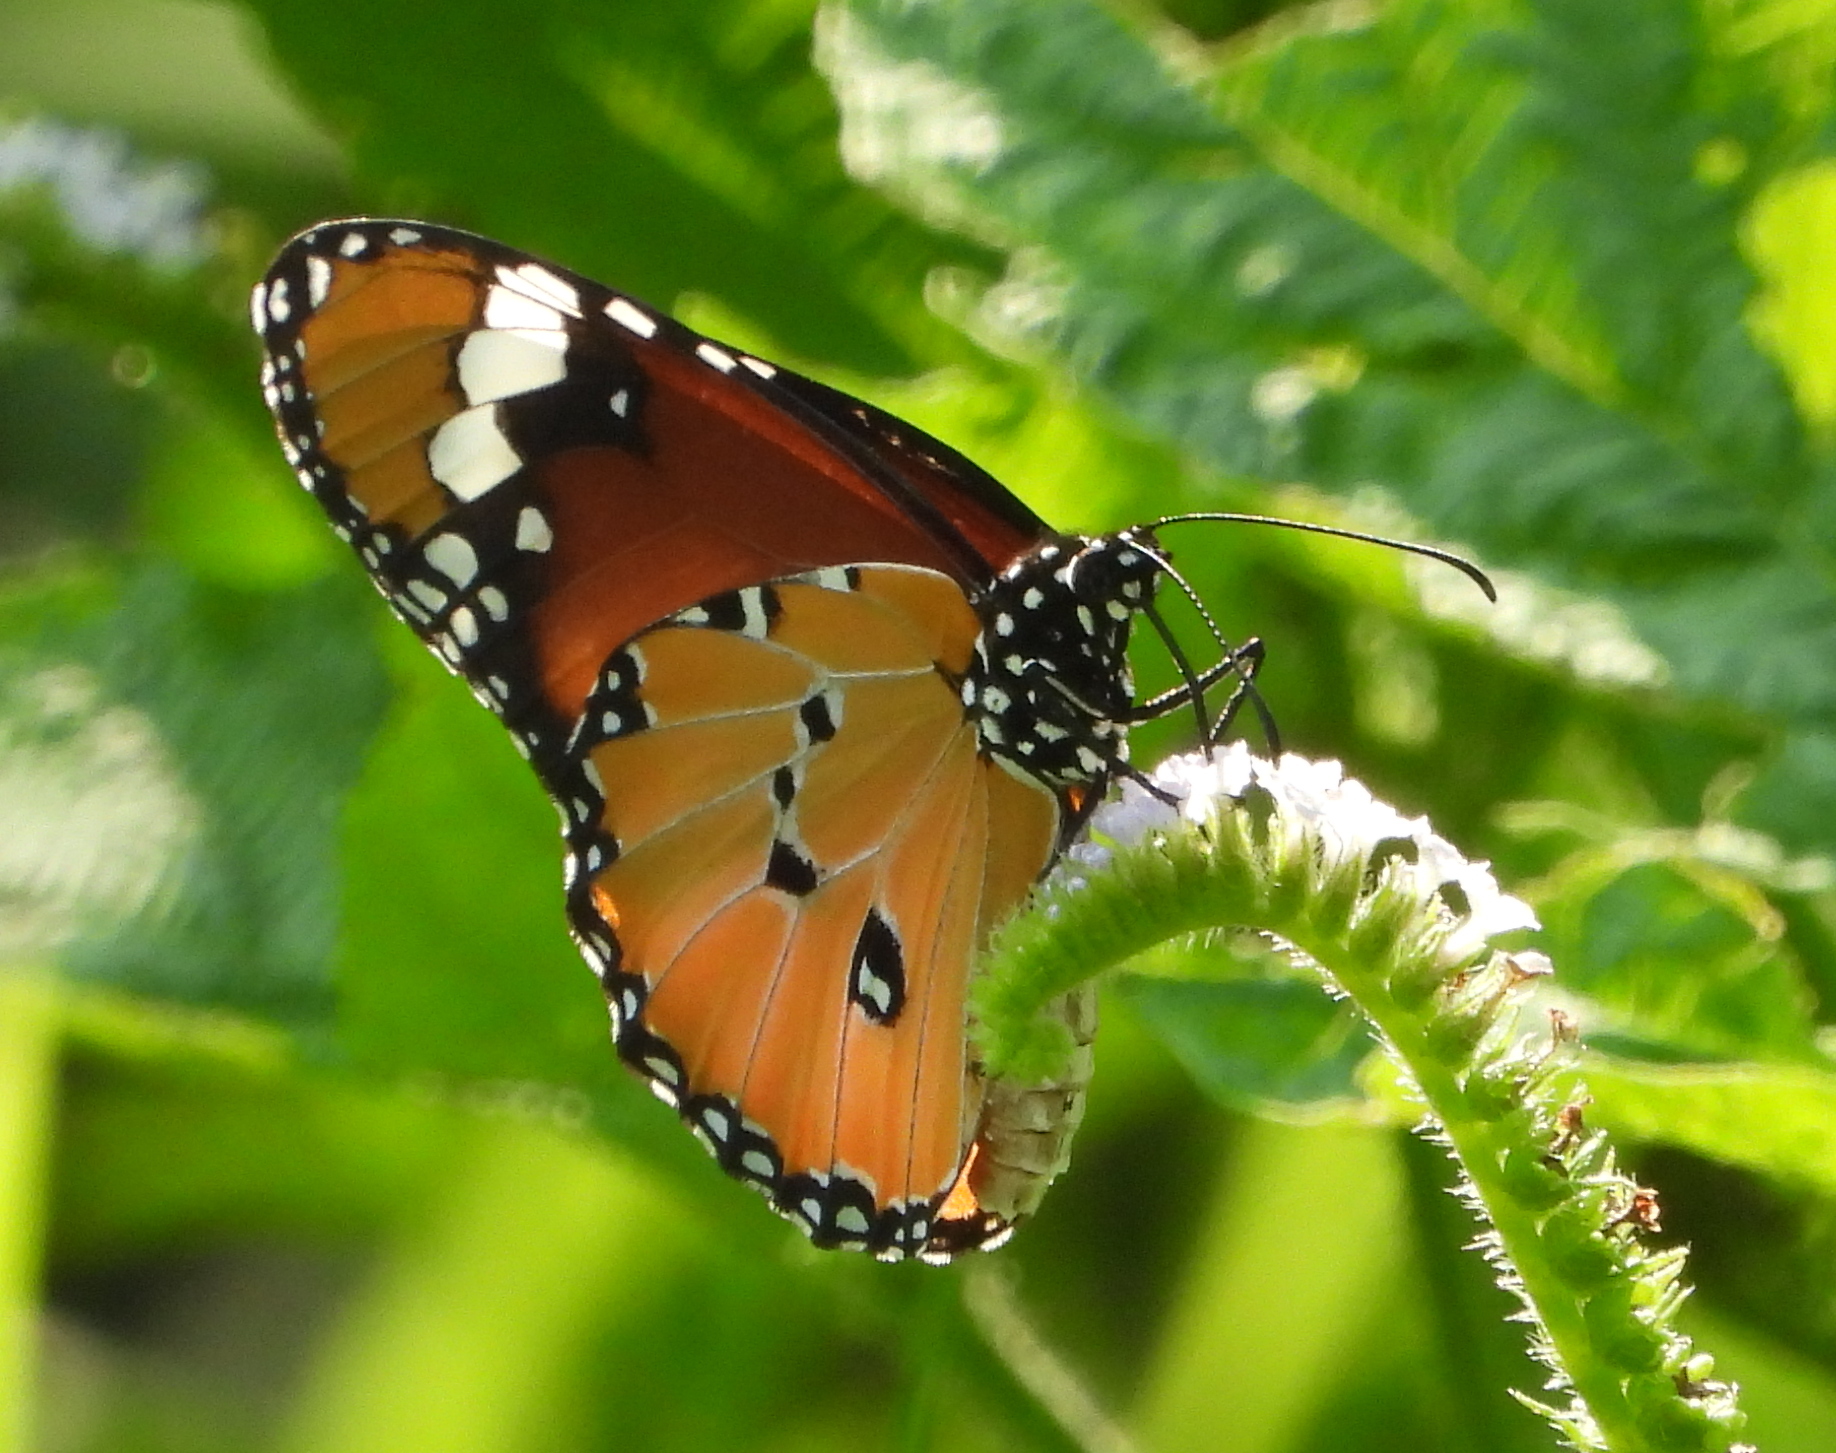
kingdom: Animalia
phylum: Arthropoda
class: Insecta
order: Lepidoptera
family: Nymphalidae
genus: Danaus
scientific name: Danaus chrysippus
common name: Plain tiger
